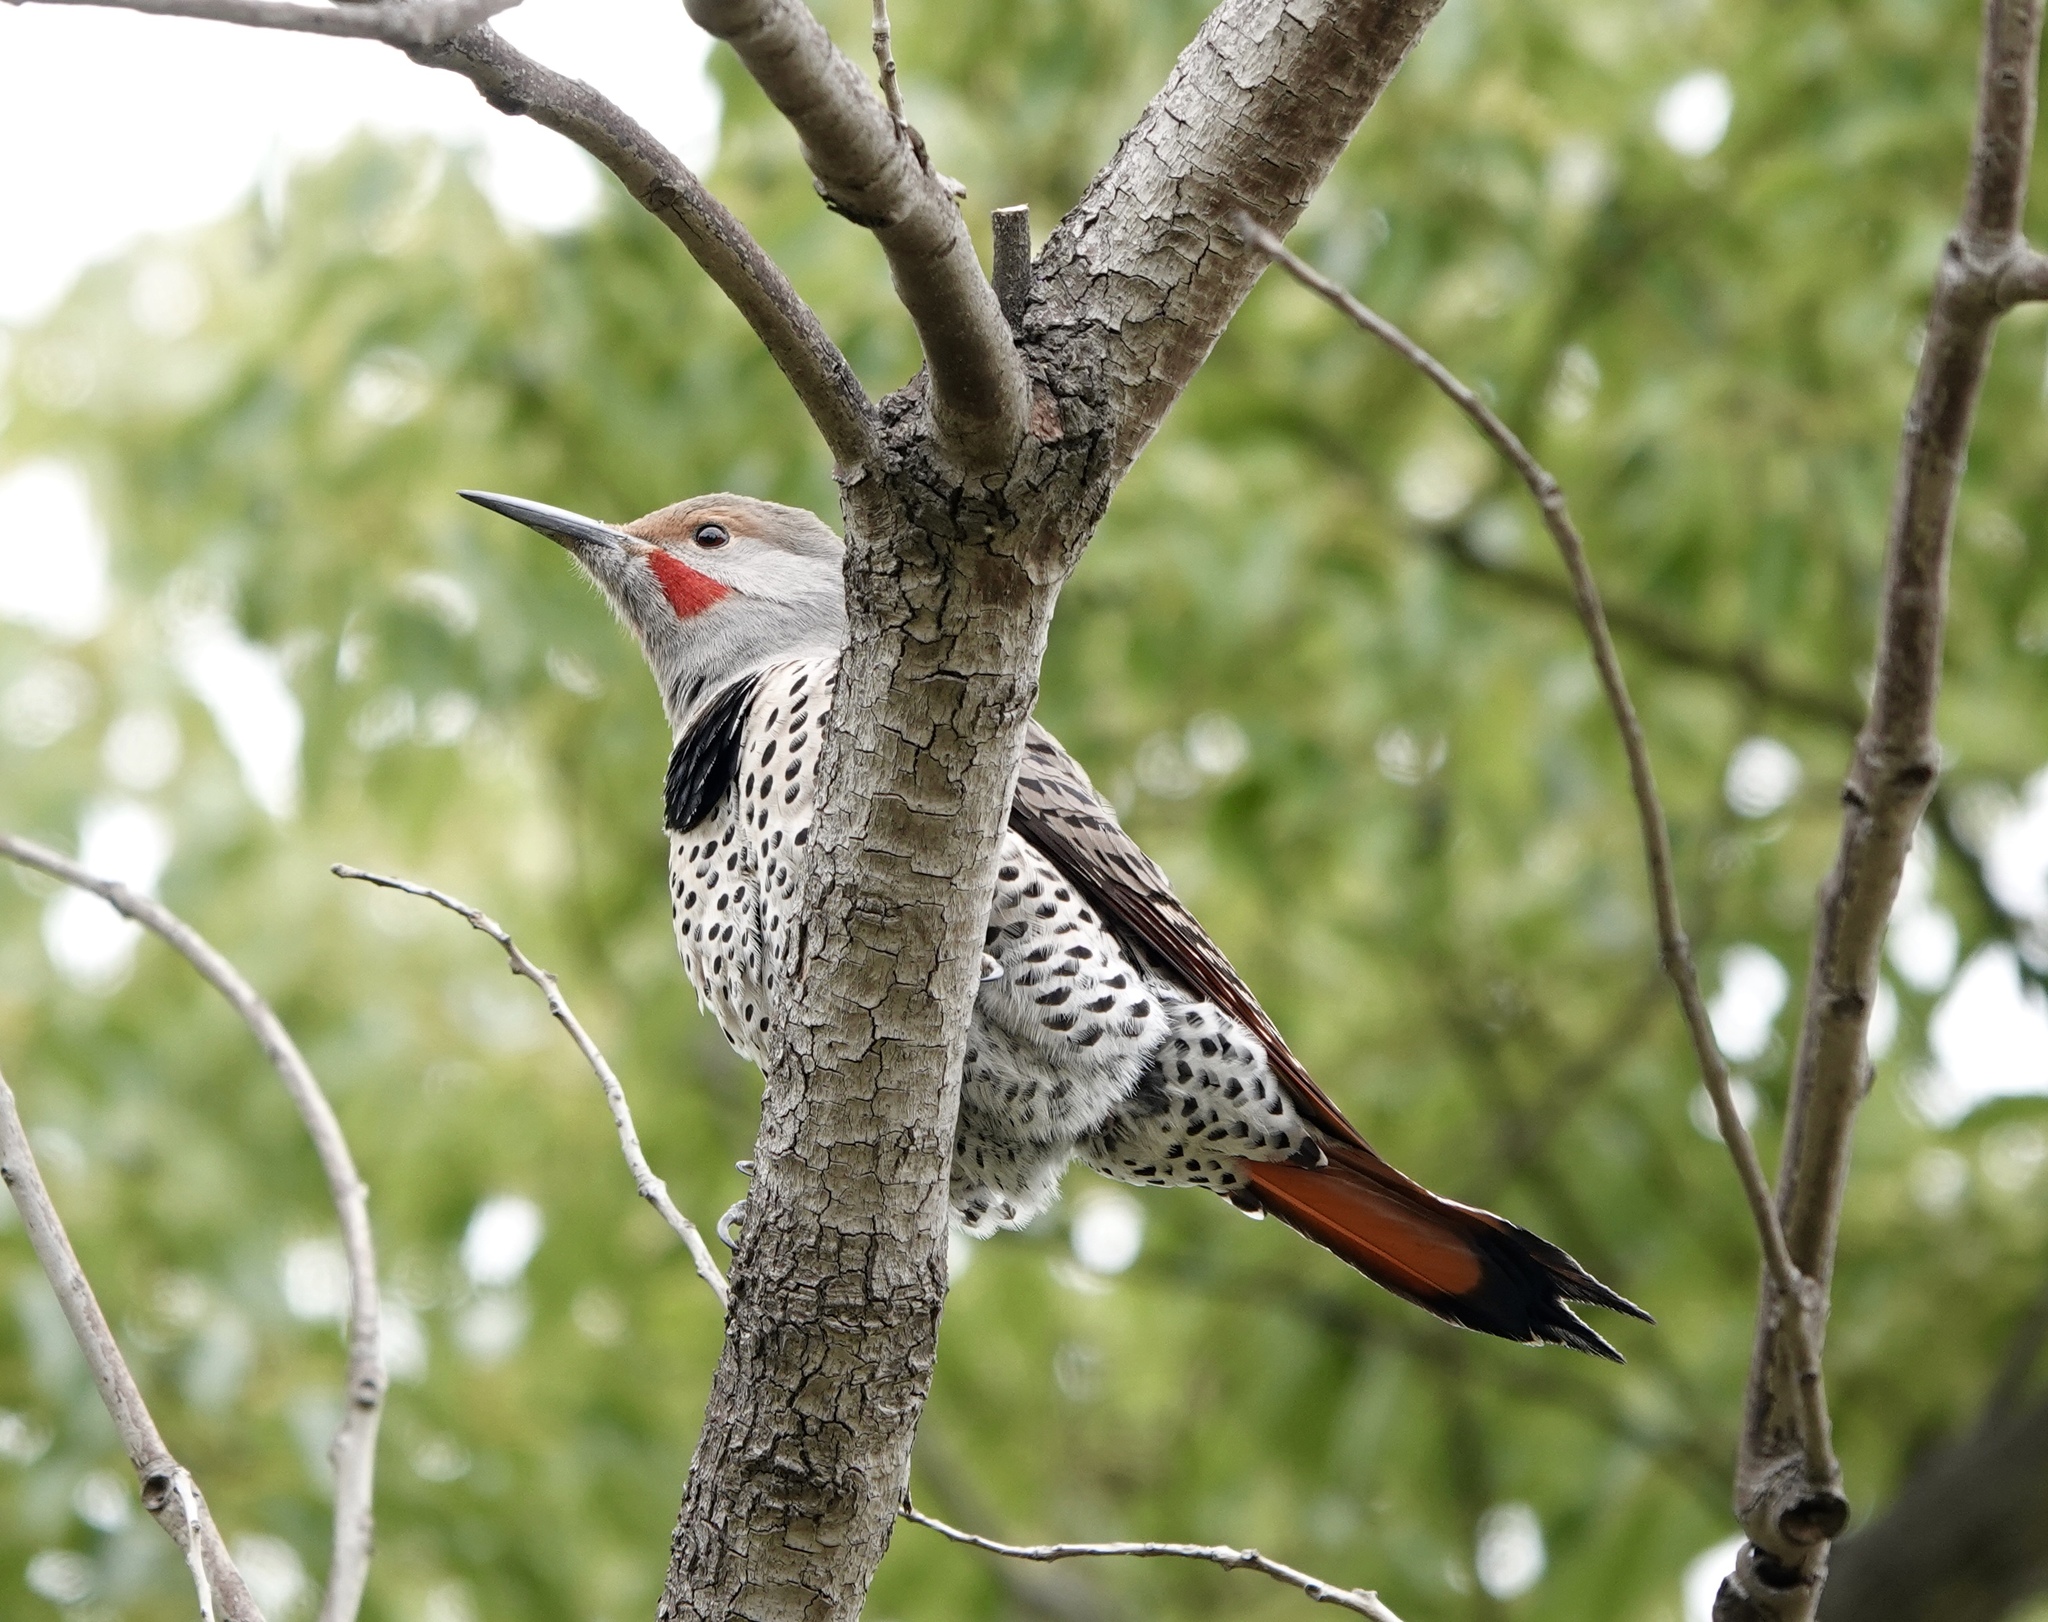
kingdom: Animalia
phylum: Chordata
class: Aves
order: Piciformes
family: Picidae
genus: Colaptes
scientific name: Colaptes auratus
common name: Northern flicker
